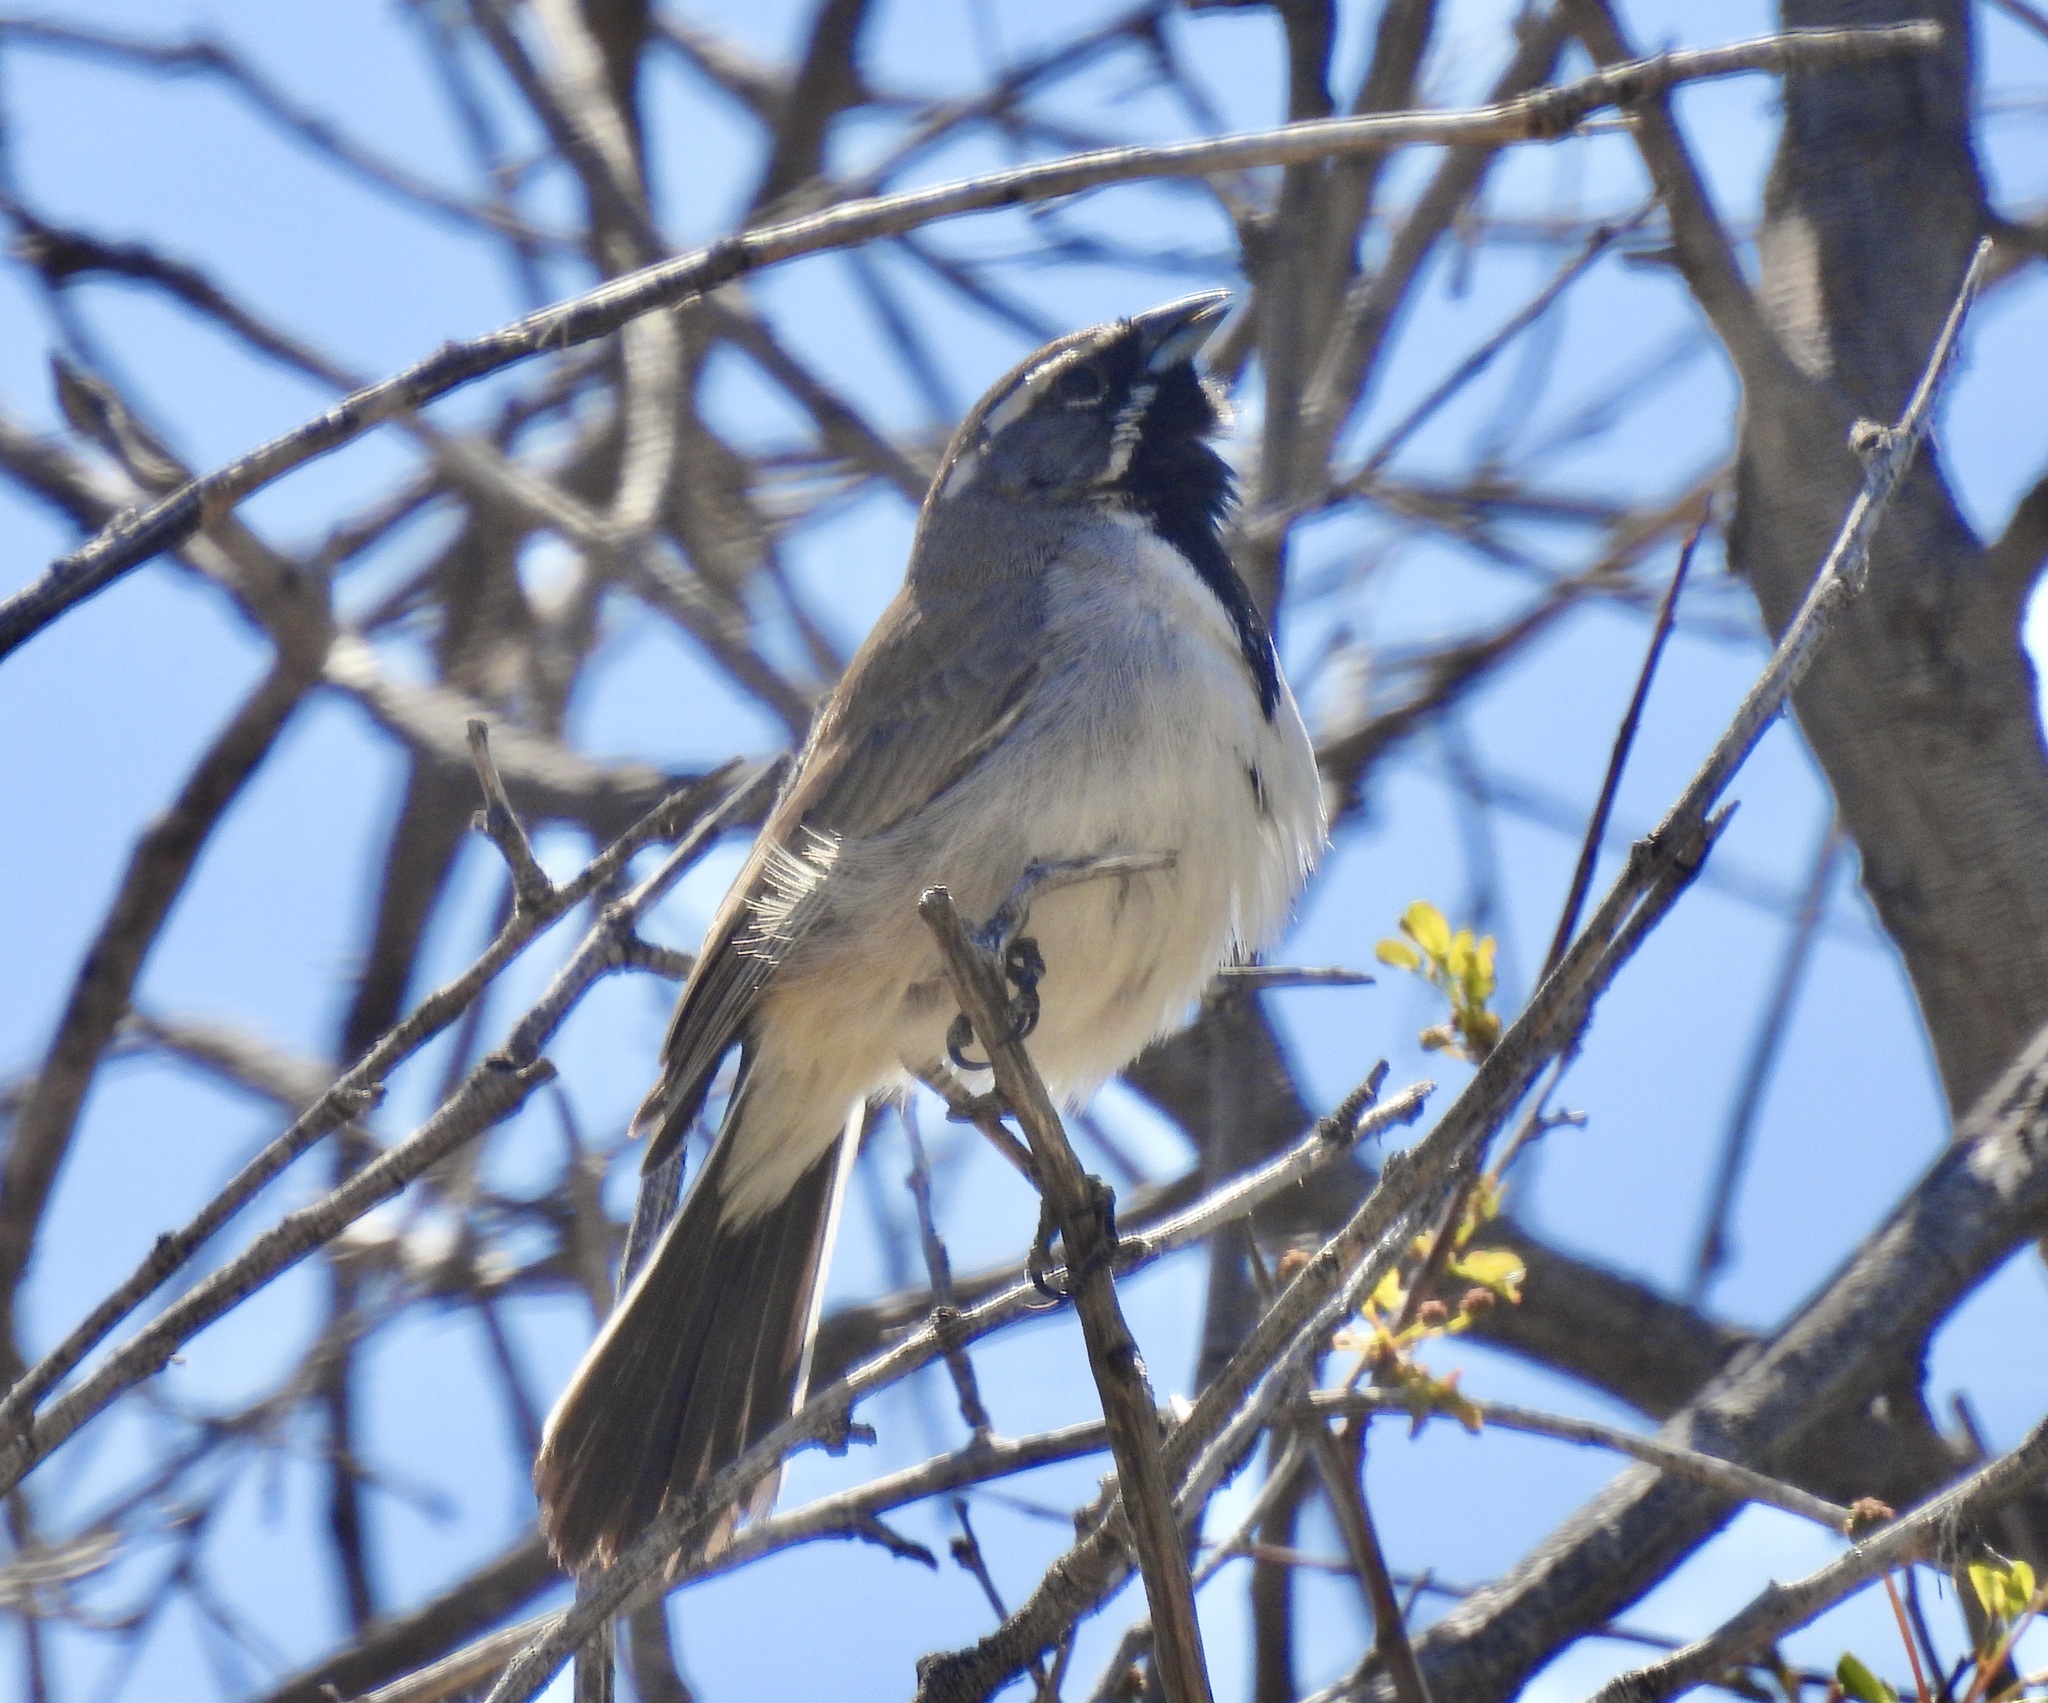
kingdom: Animalia
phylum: Chordata
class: Aves
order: Passeriformes
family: Passerellidae
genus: Amphispiza
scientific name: Amphispiza bilineata
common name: Black-throated sparrow
